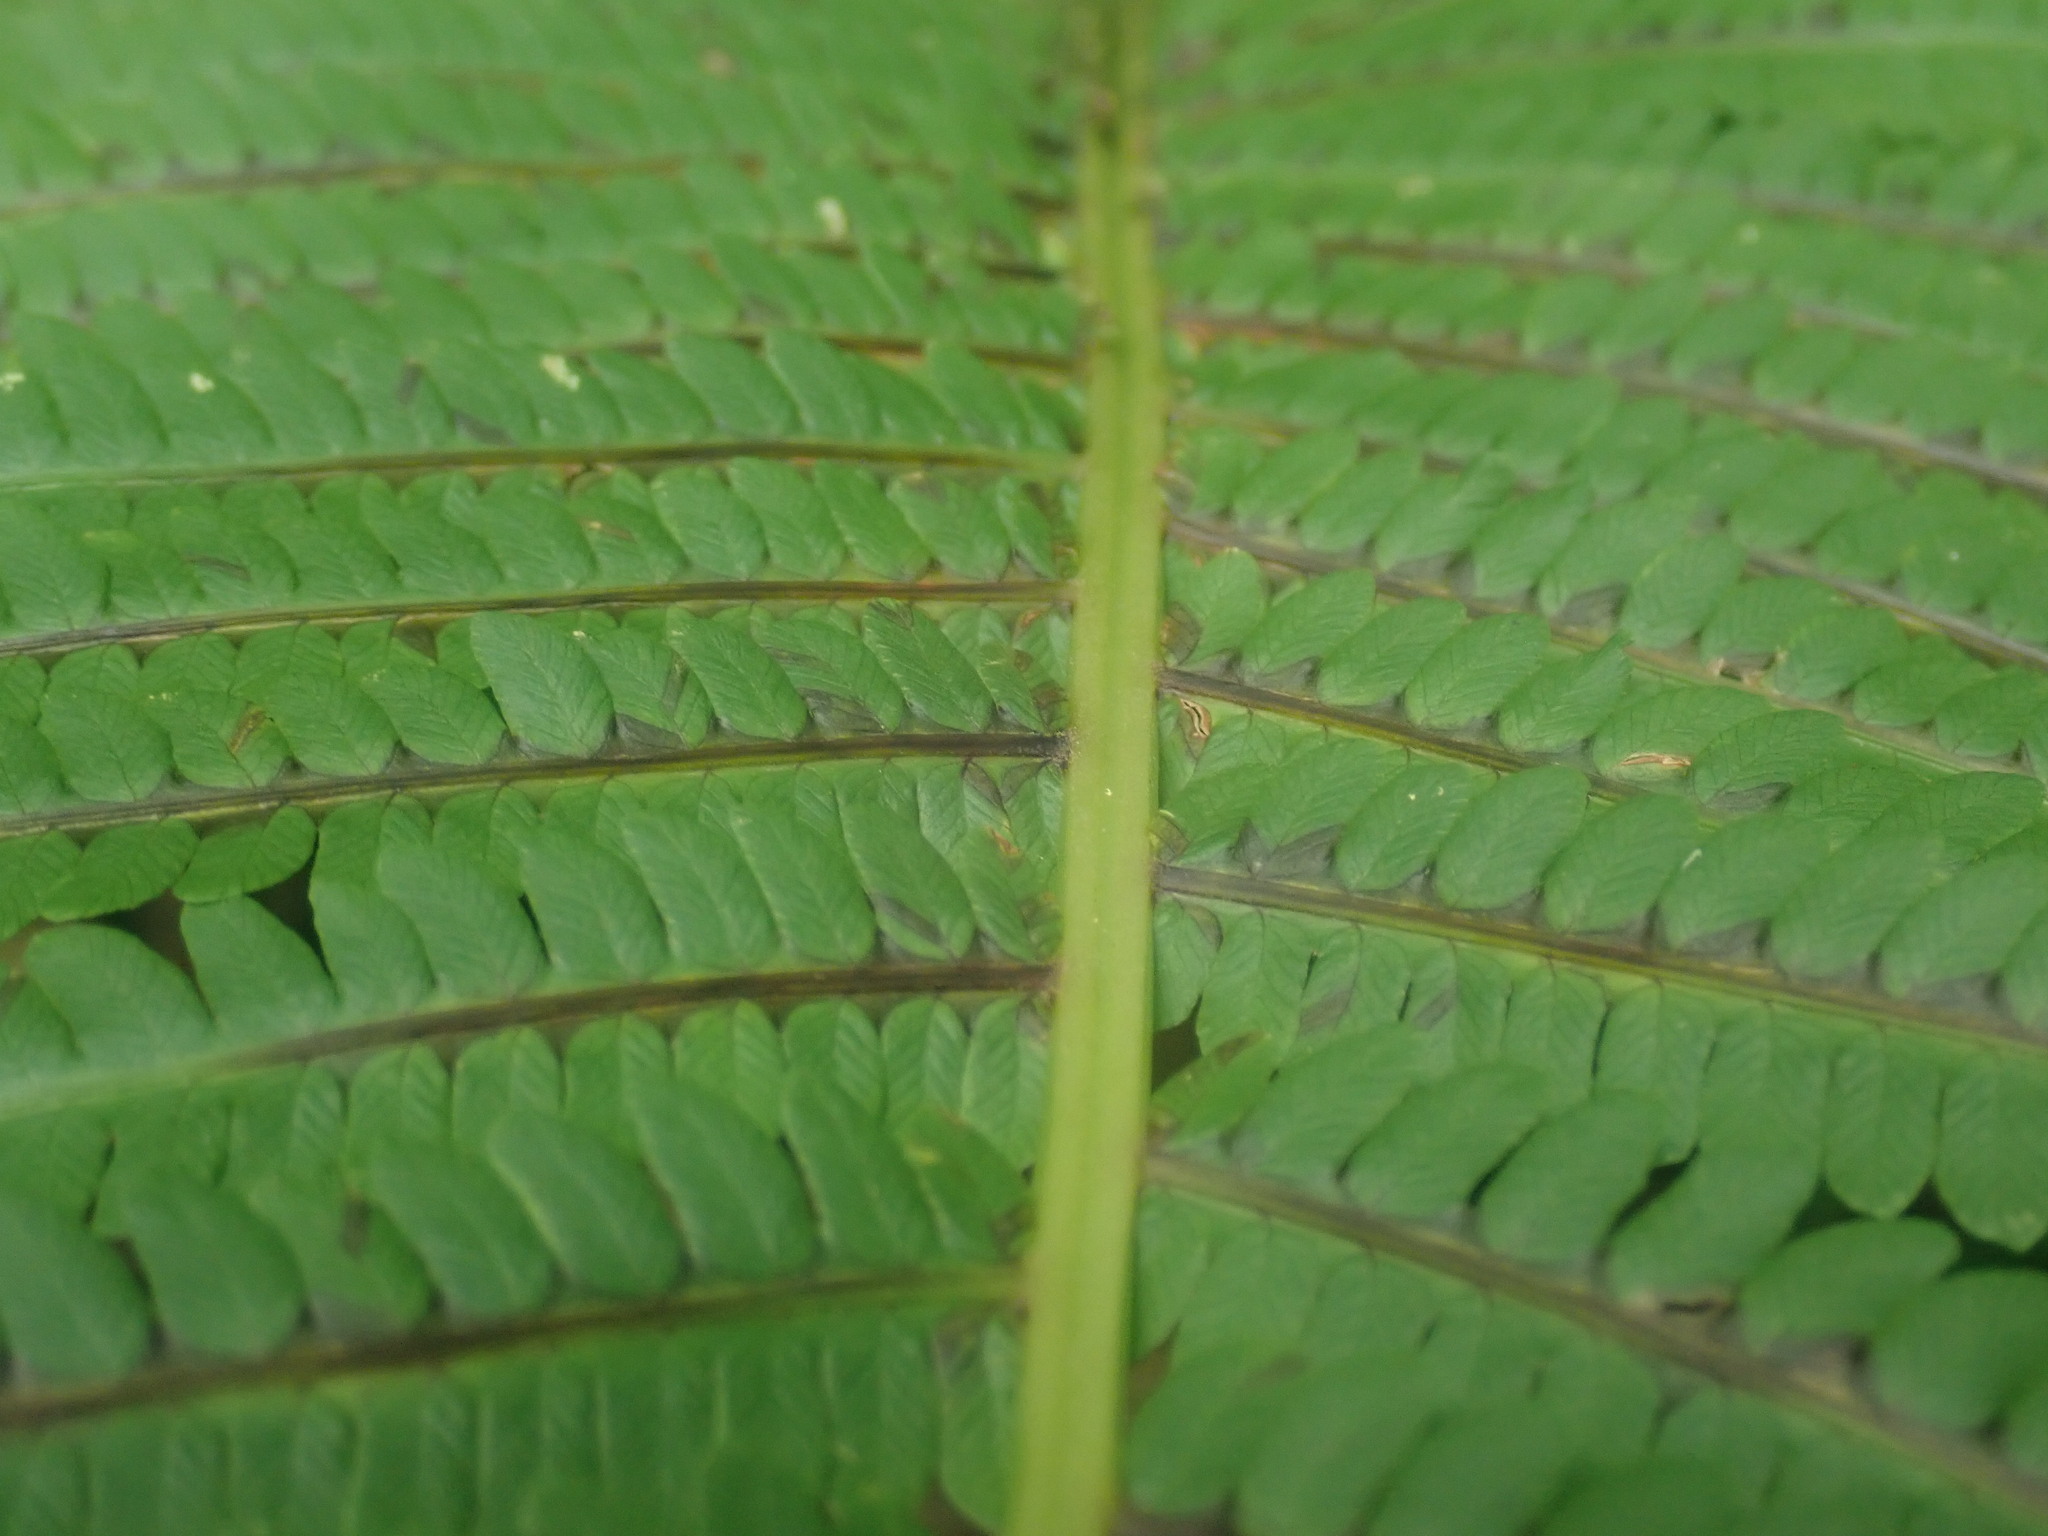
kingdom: Plantae
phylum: Tracheophyta
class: Polypodiopsida
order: Polypodiales
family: Onocleaceae
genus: Matteuccia
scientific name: Matteuccia struthiopteris
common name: Ostrich fern
